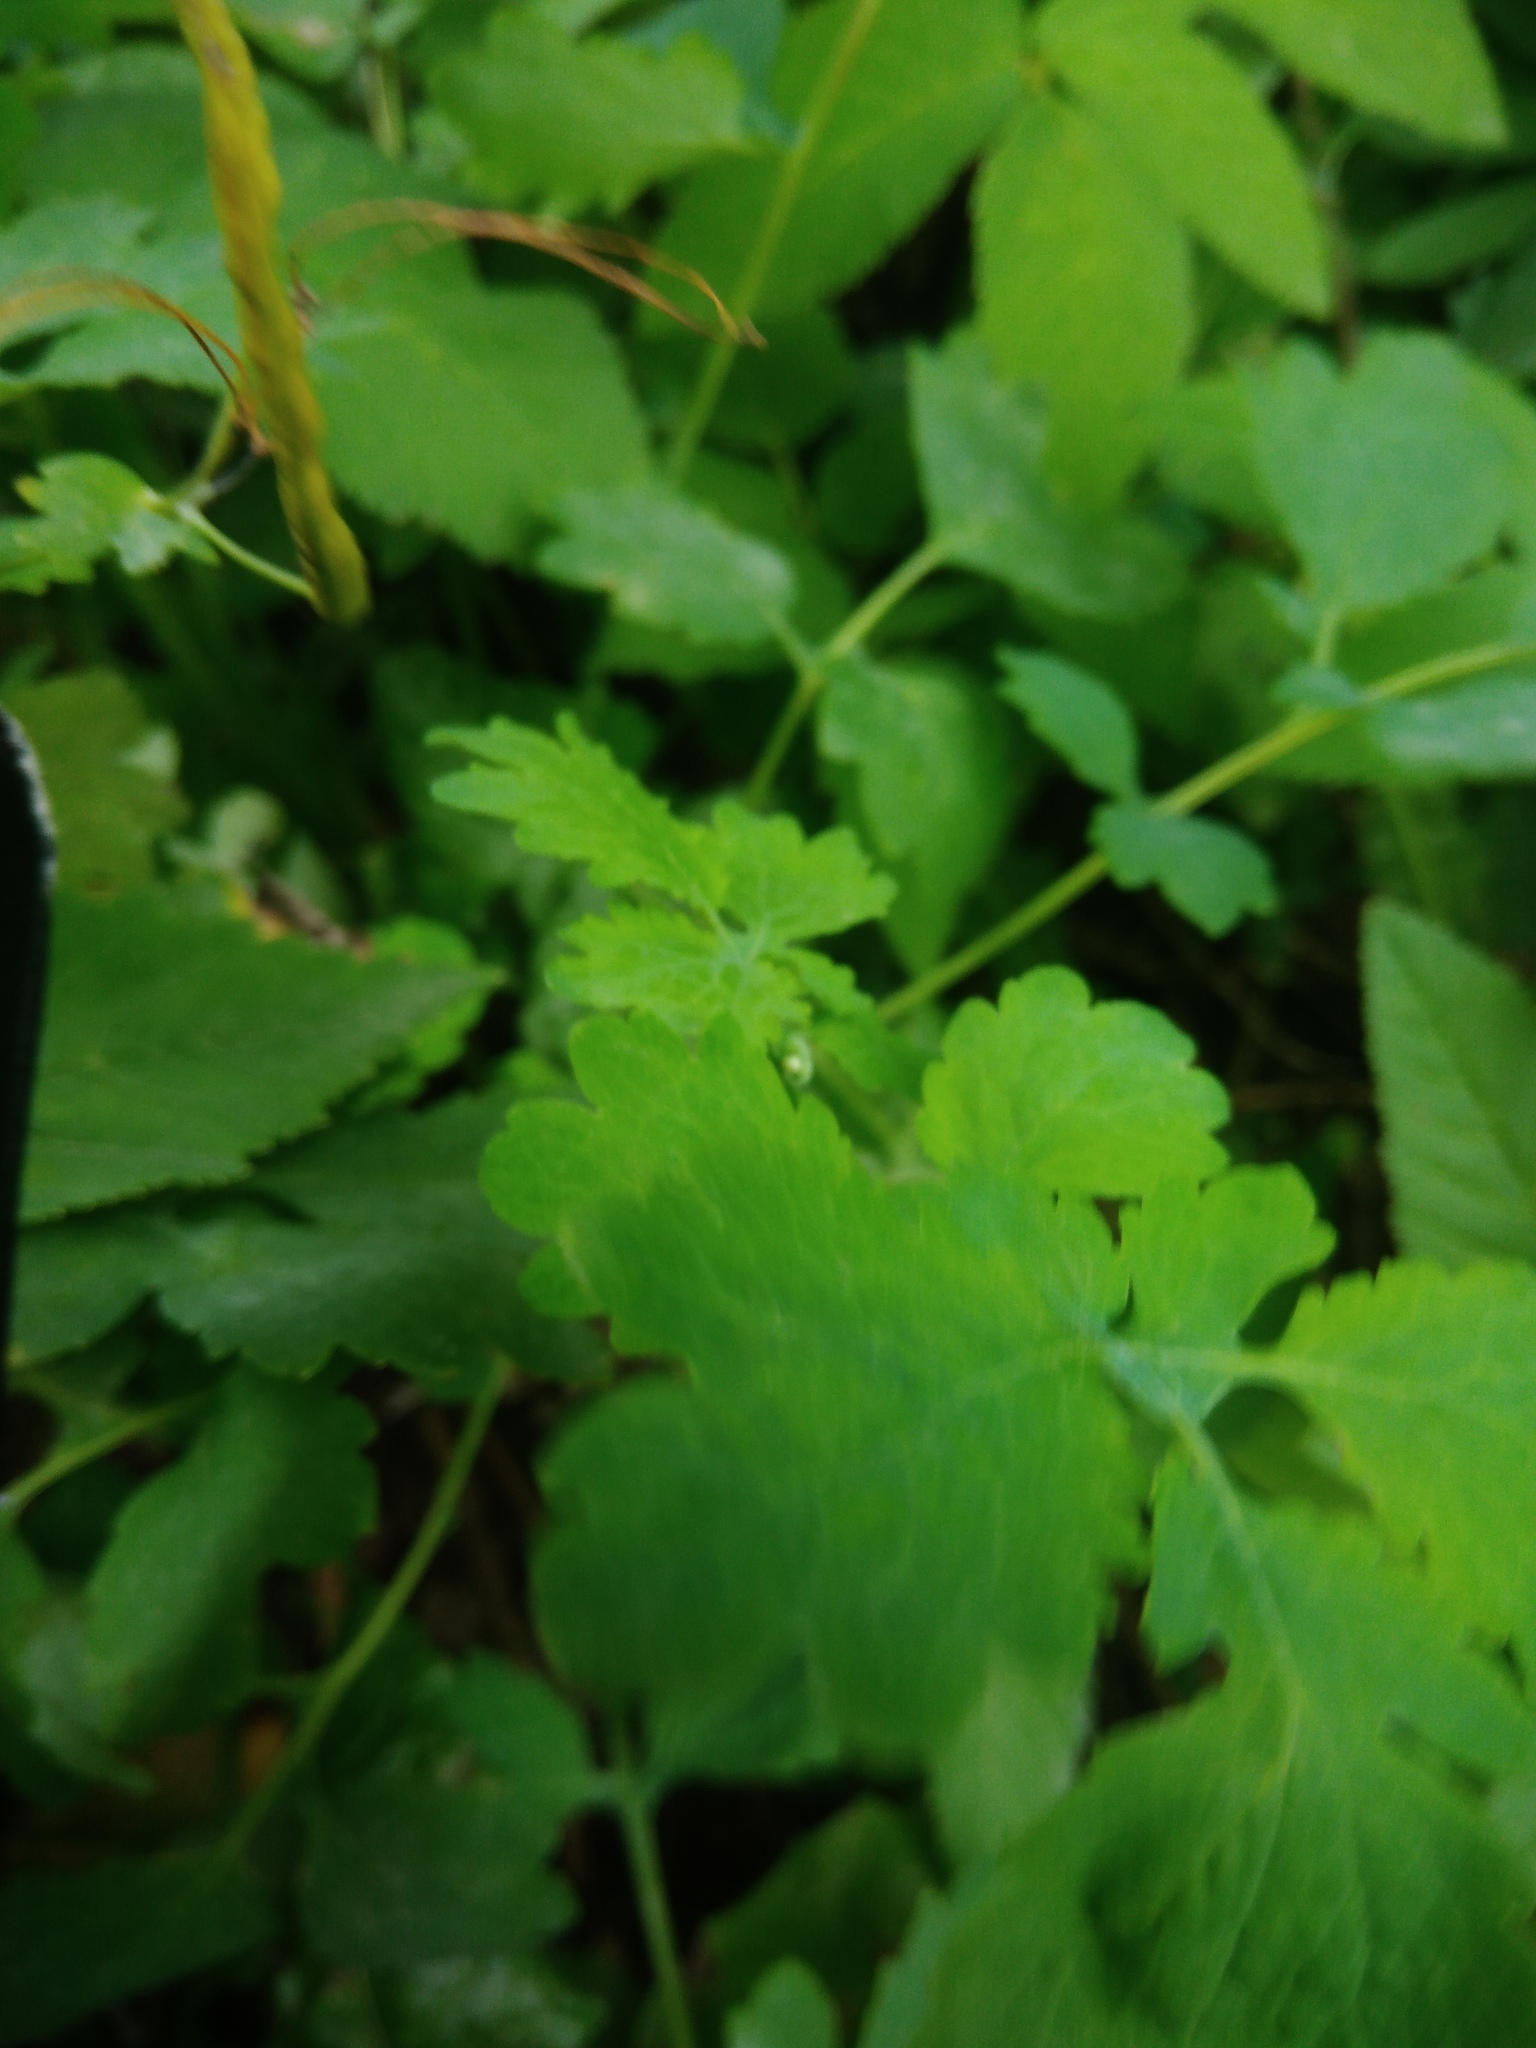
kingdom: Plantae
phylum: Tracheophyta
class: Magnoliopsida
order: Ranunculales
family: Papaveraceae
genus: Chelidonium
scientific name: Chelidonium majus
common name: Greater celandine
